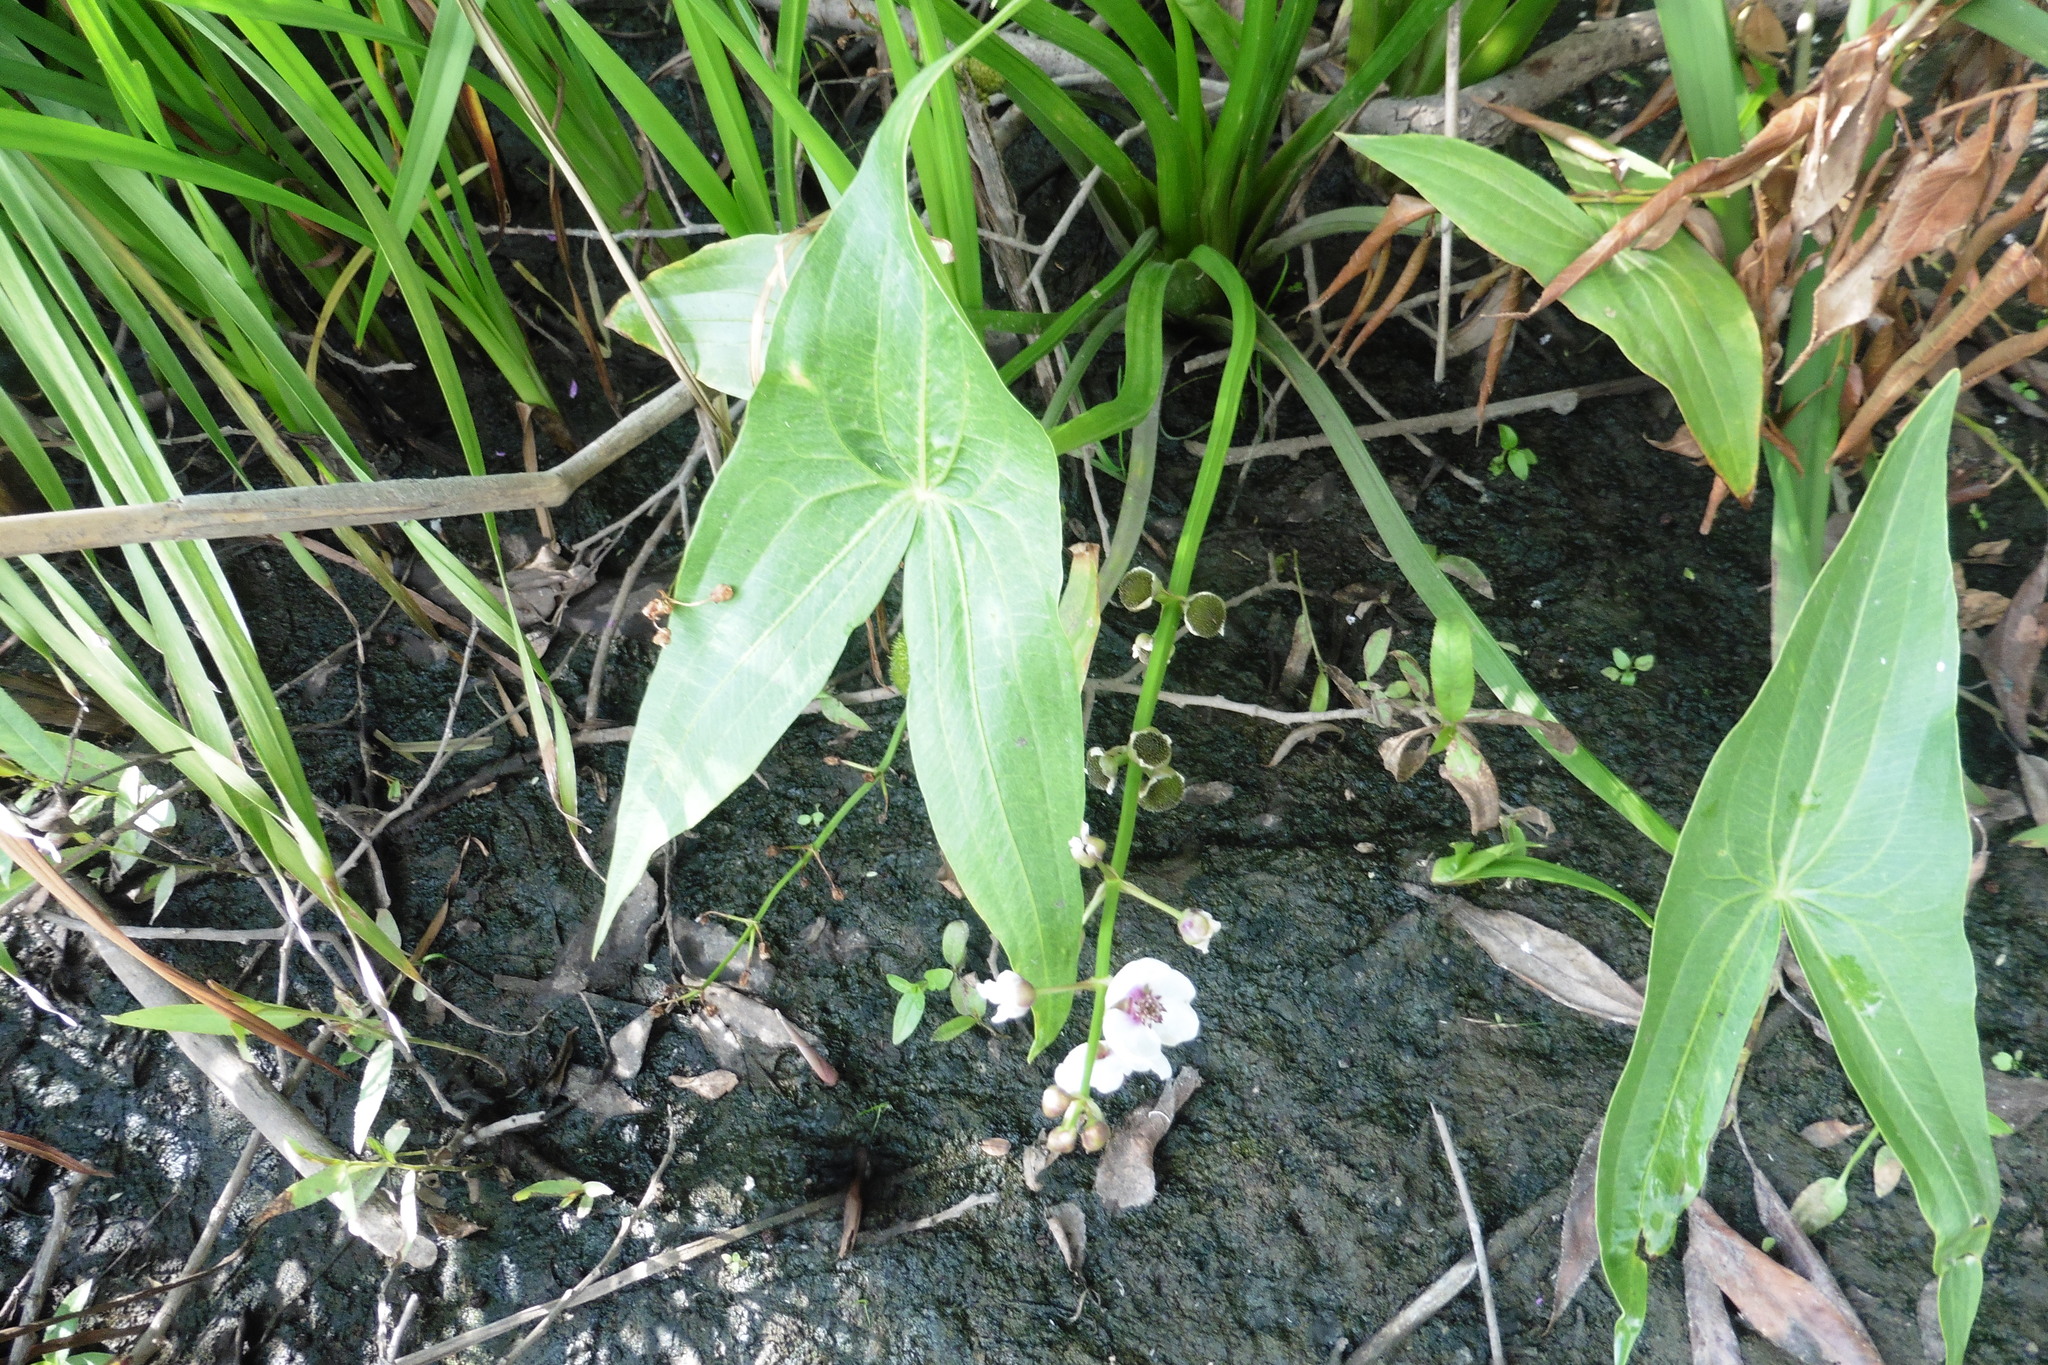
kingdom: Plantae
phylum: Tracheophyta
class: Liliopsida
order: Alismatales
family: Alismataceae
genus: Sagittaria
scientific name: Sagittaria sagittifolia
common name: Arrowhead
